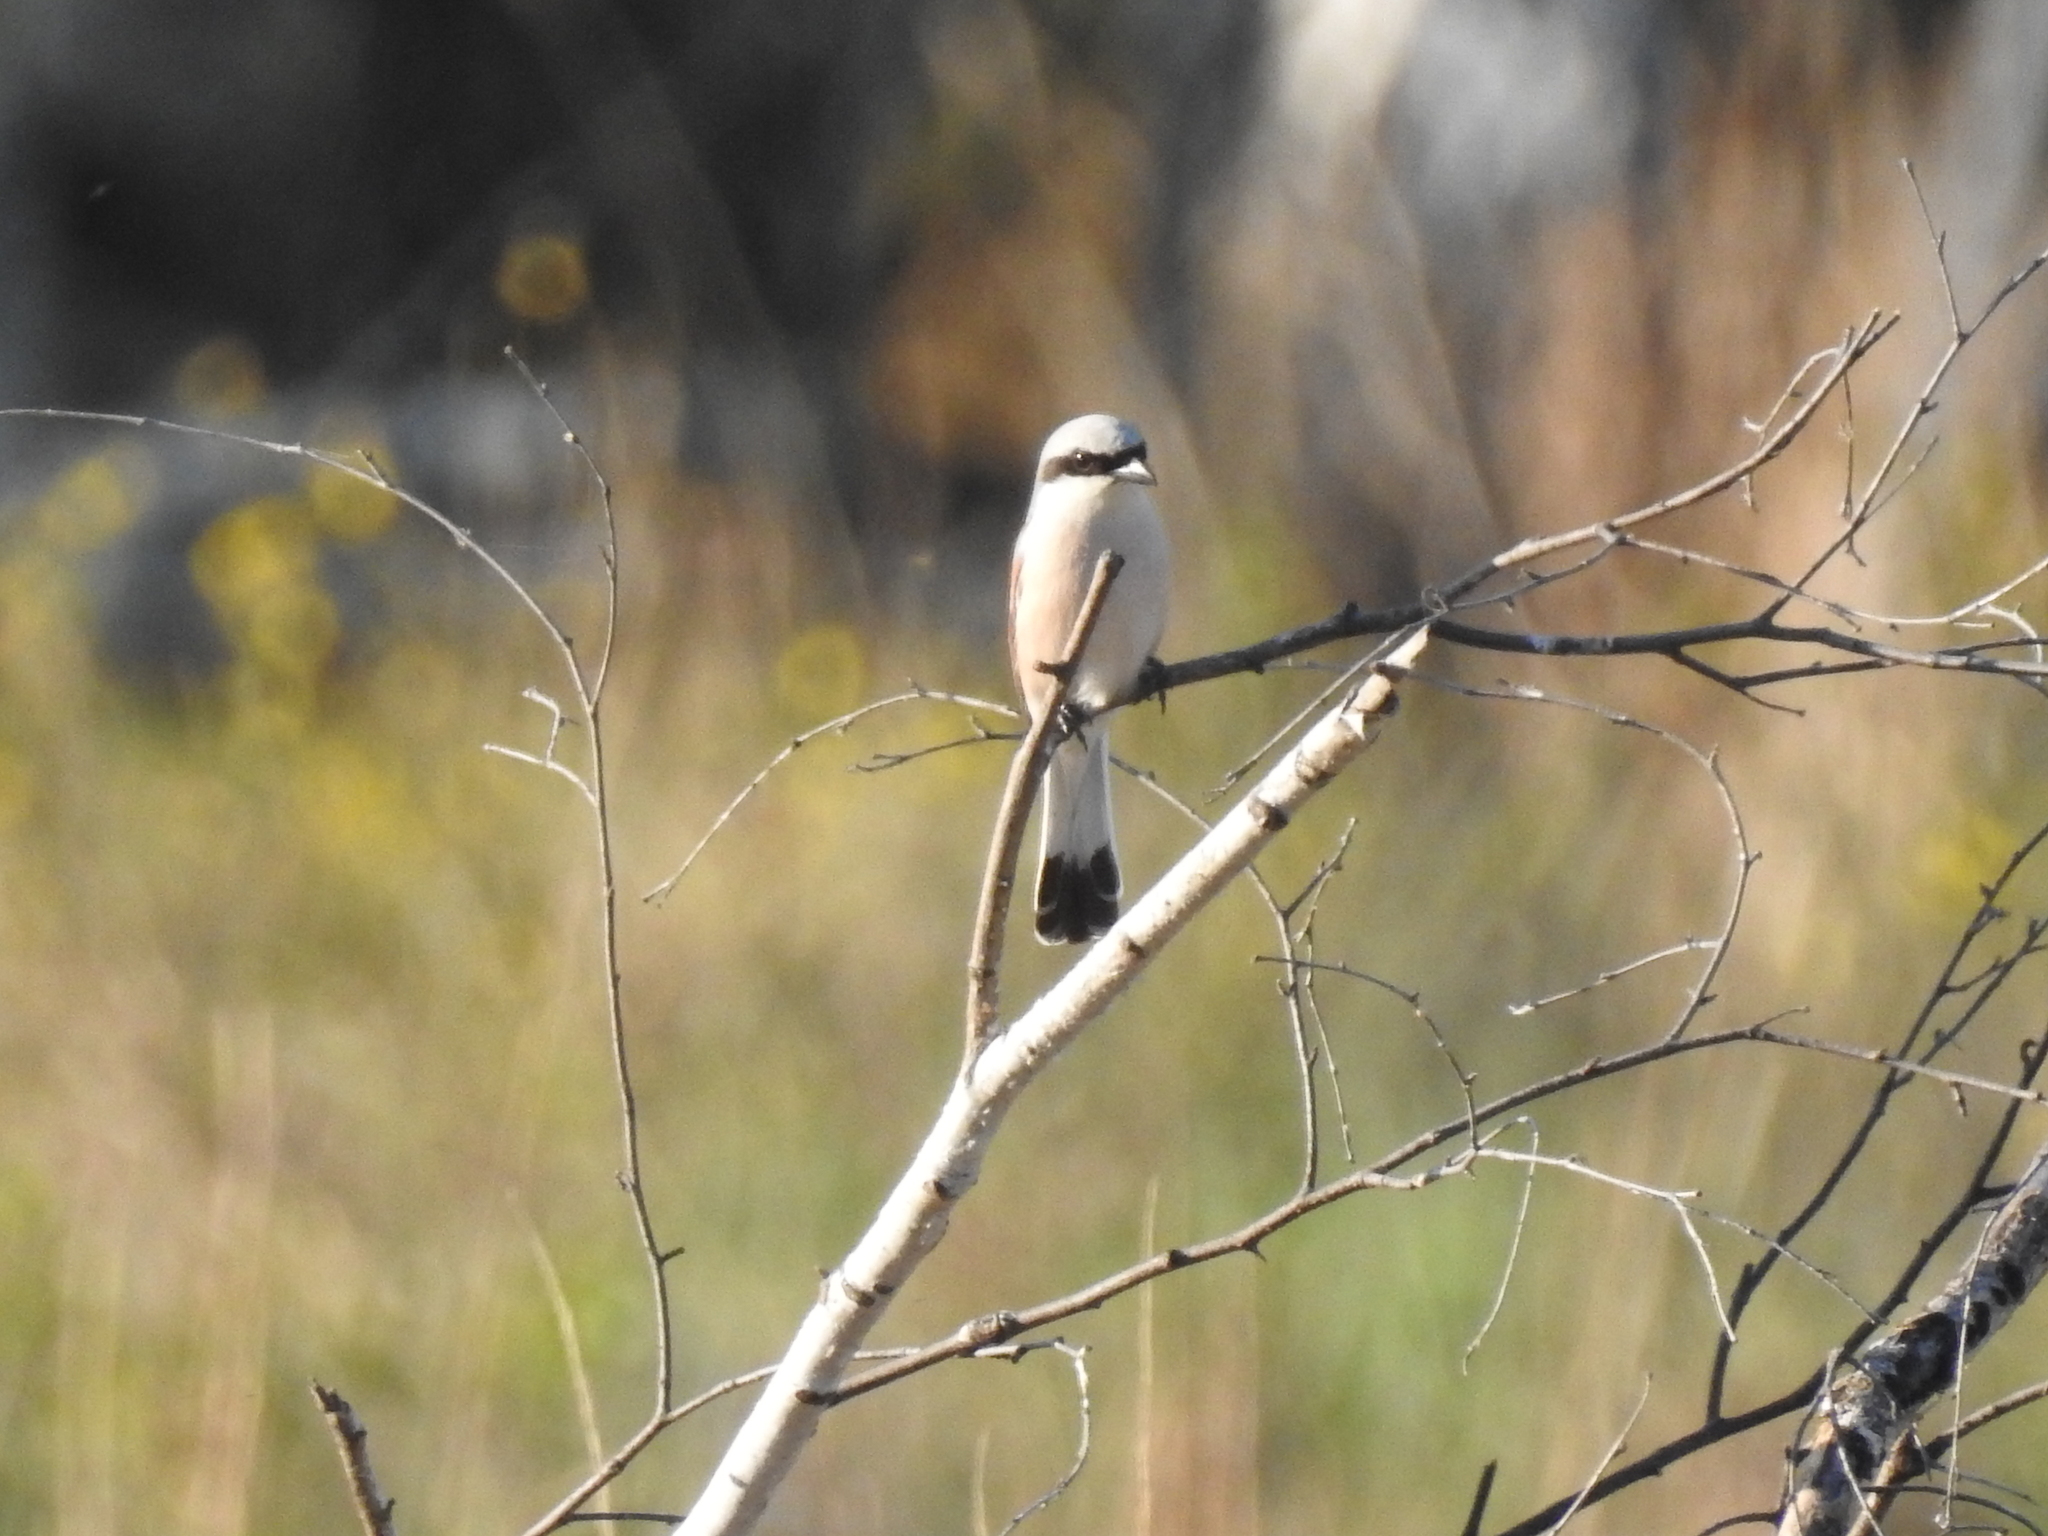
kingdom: Animalia
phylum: Chordata
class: Aves
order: Passeriformes
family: Laniidae
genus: Lanius
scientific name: Lanius collurio
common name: Red-backed shrike
